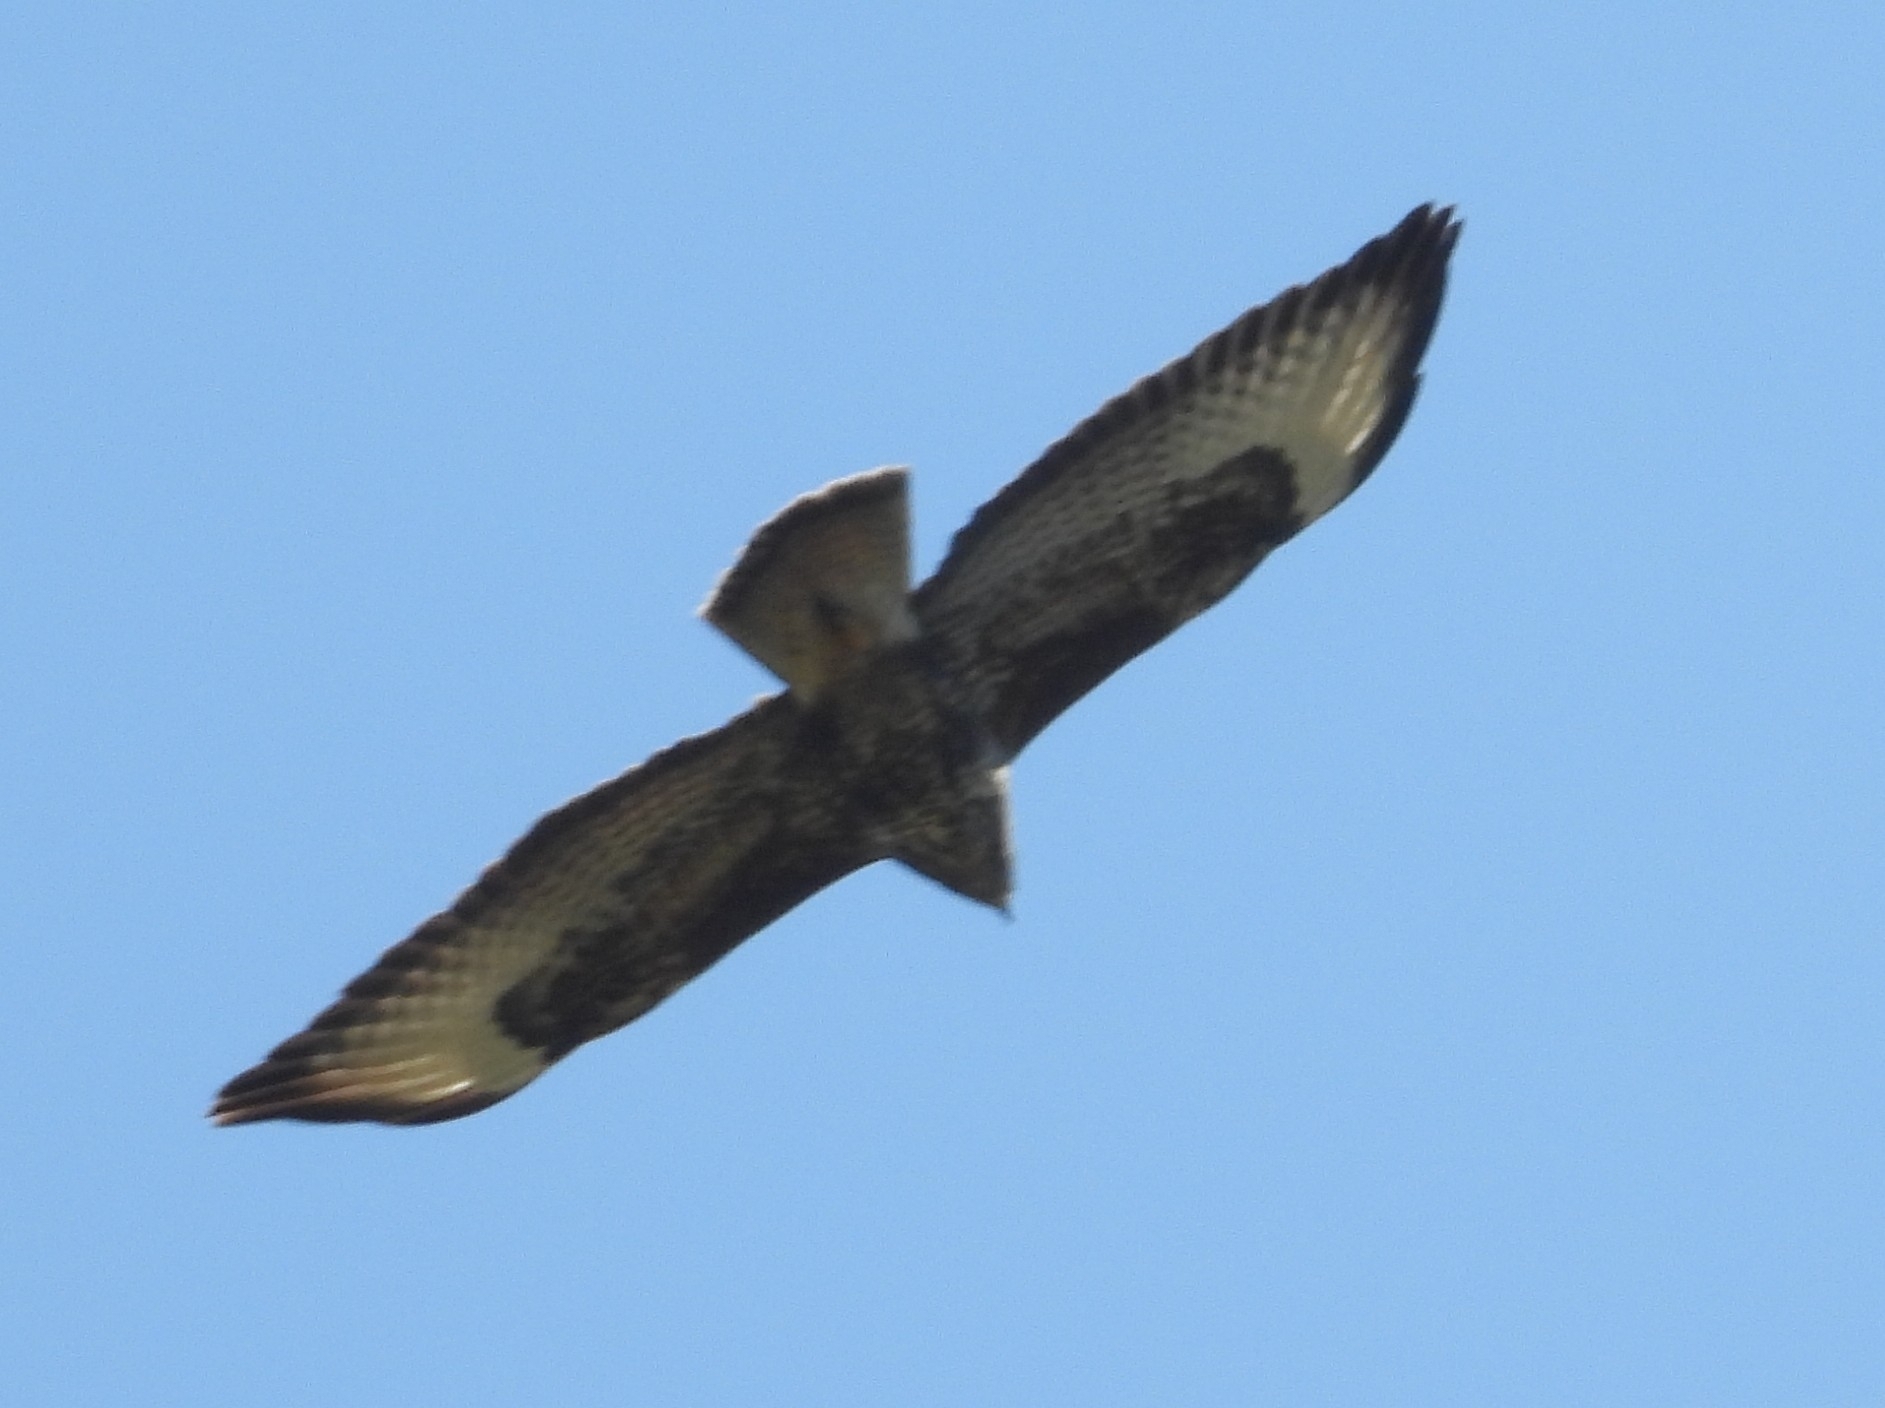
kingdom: Animalia
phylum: Chordata
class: Aves
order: Accipitriformes
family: Accipitridae
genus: Buteo
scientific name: Buteo buteo
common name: Common buzzard
